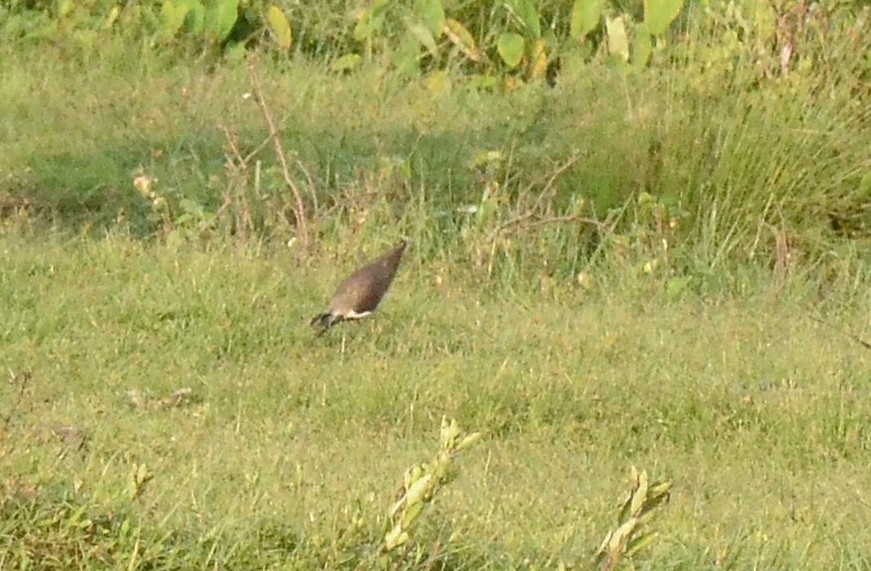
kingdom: Animalia
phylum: Chordata
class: Aves
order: Charadriiformes
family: Charadriidae
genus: Vanellus
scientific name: Vanellus indicus
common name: Red-wattled lapwing
